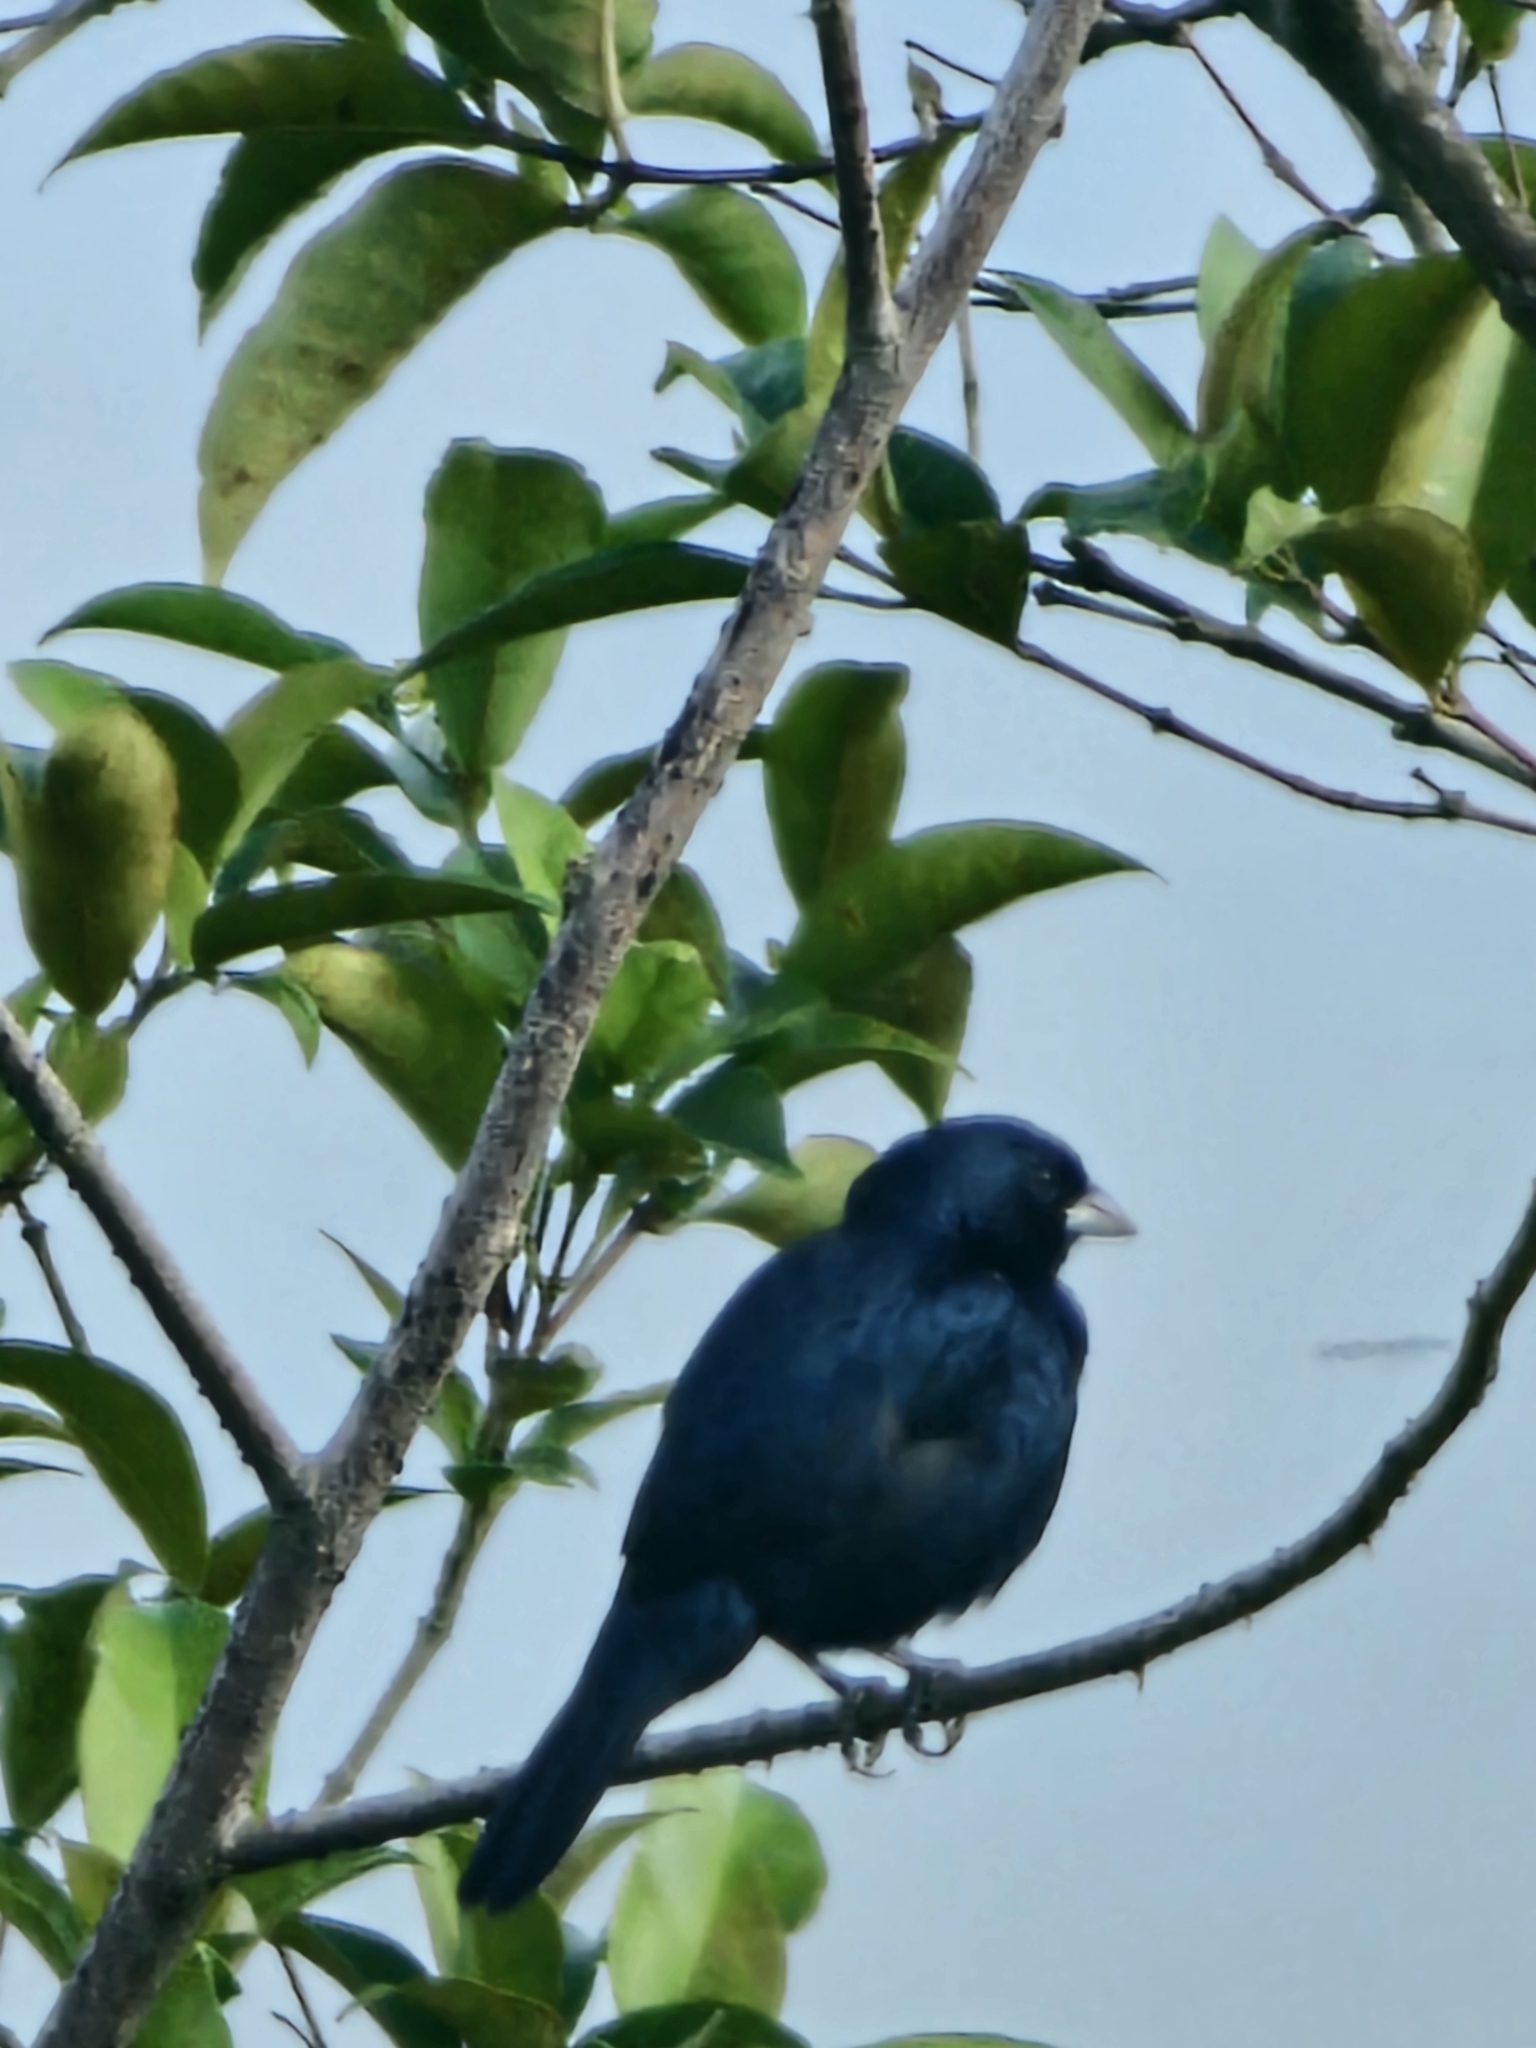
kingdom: Animalia
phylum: Chordata
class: Aves
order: Passeriformes
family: Thraupidae
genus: Volatinia
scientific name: Volatinia jacarina
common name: Blue-black grassquit
